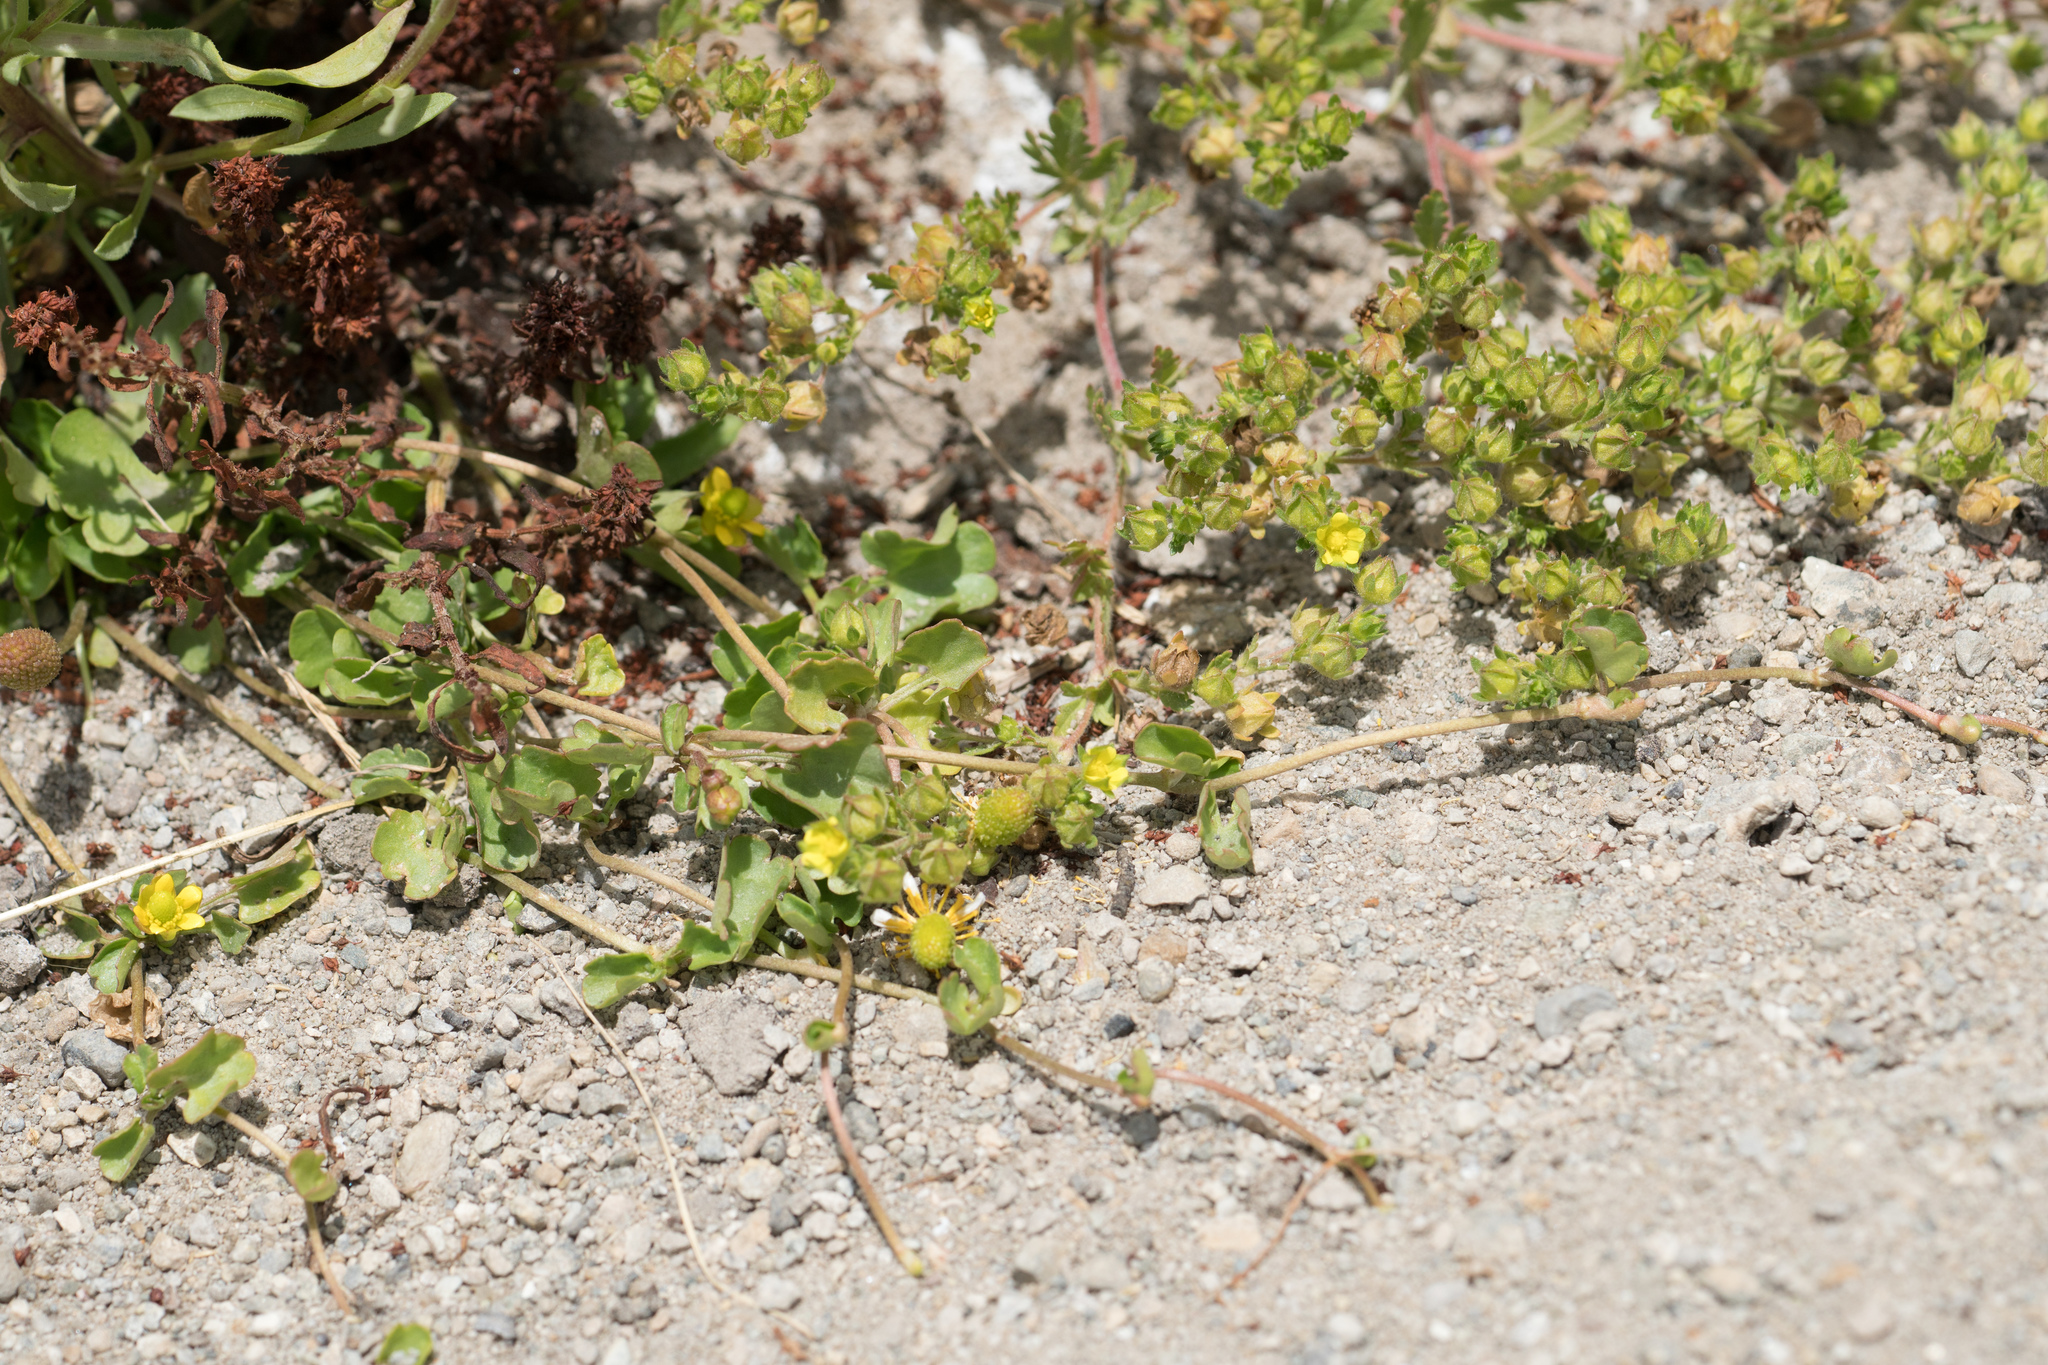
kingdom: Plantae
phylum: Tracheophyta
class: Magnoliopsida
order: Rosales
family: Rosaceae
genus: Potentilla
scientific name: Potentilla biennis
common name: Greene's cinquefoil
